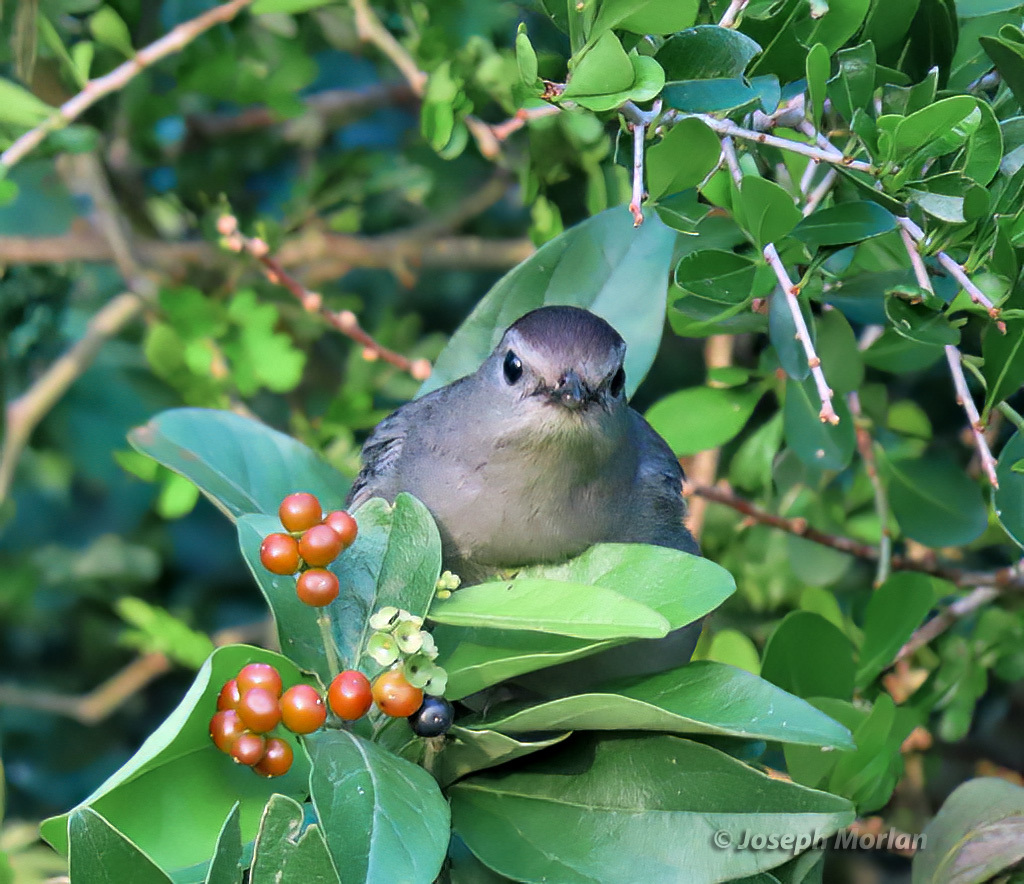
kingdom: Animalia
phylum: Chordata
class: Aves
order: Passeriformes
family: Mimidae
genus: Dumetella
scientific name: Dumetella carolinensis
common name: Gray catbird
